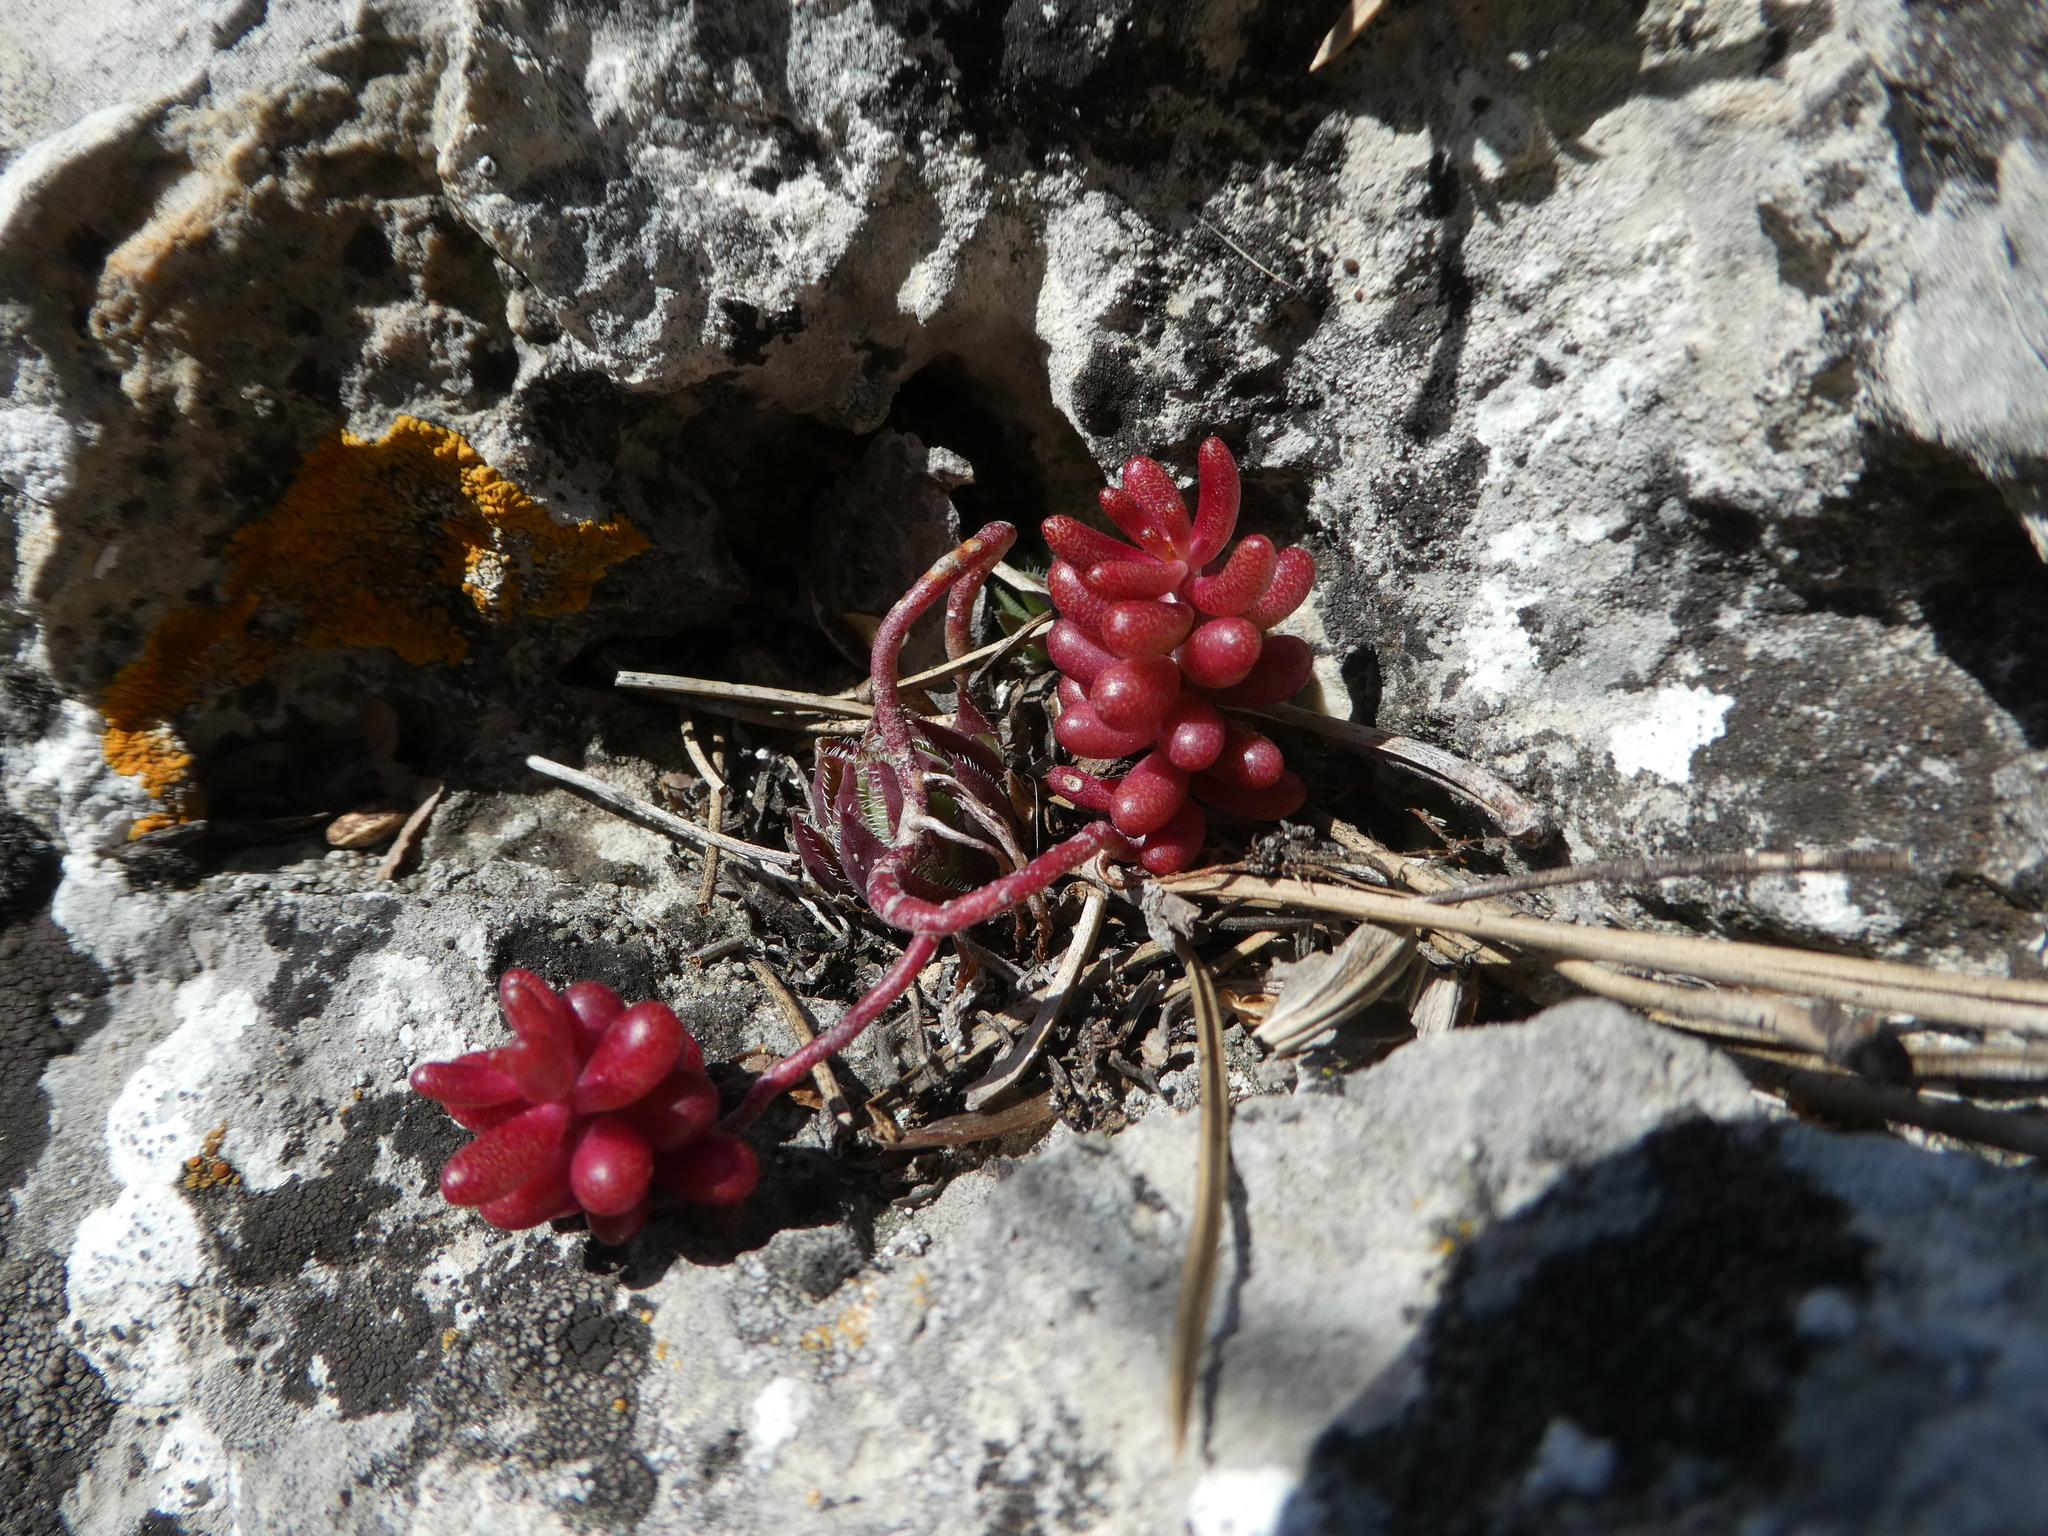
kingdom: Plantae
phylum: Tracheophyta
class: Magnoliopsida
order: Saxifragales
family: Crassulaceae
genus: Sedum
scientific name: Sedum album
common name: White stonecrop
